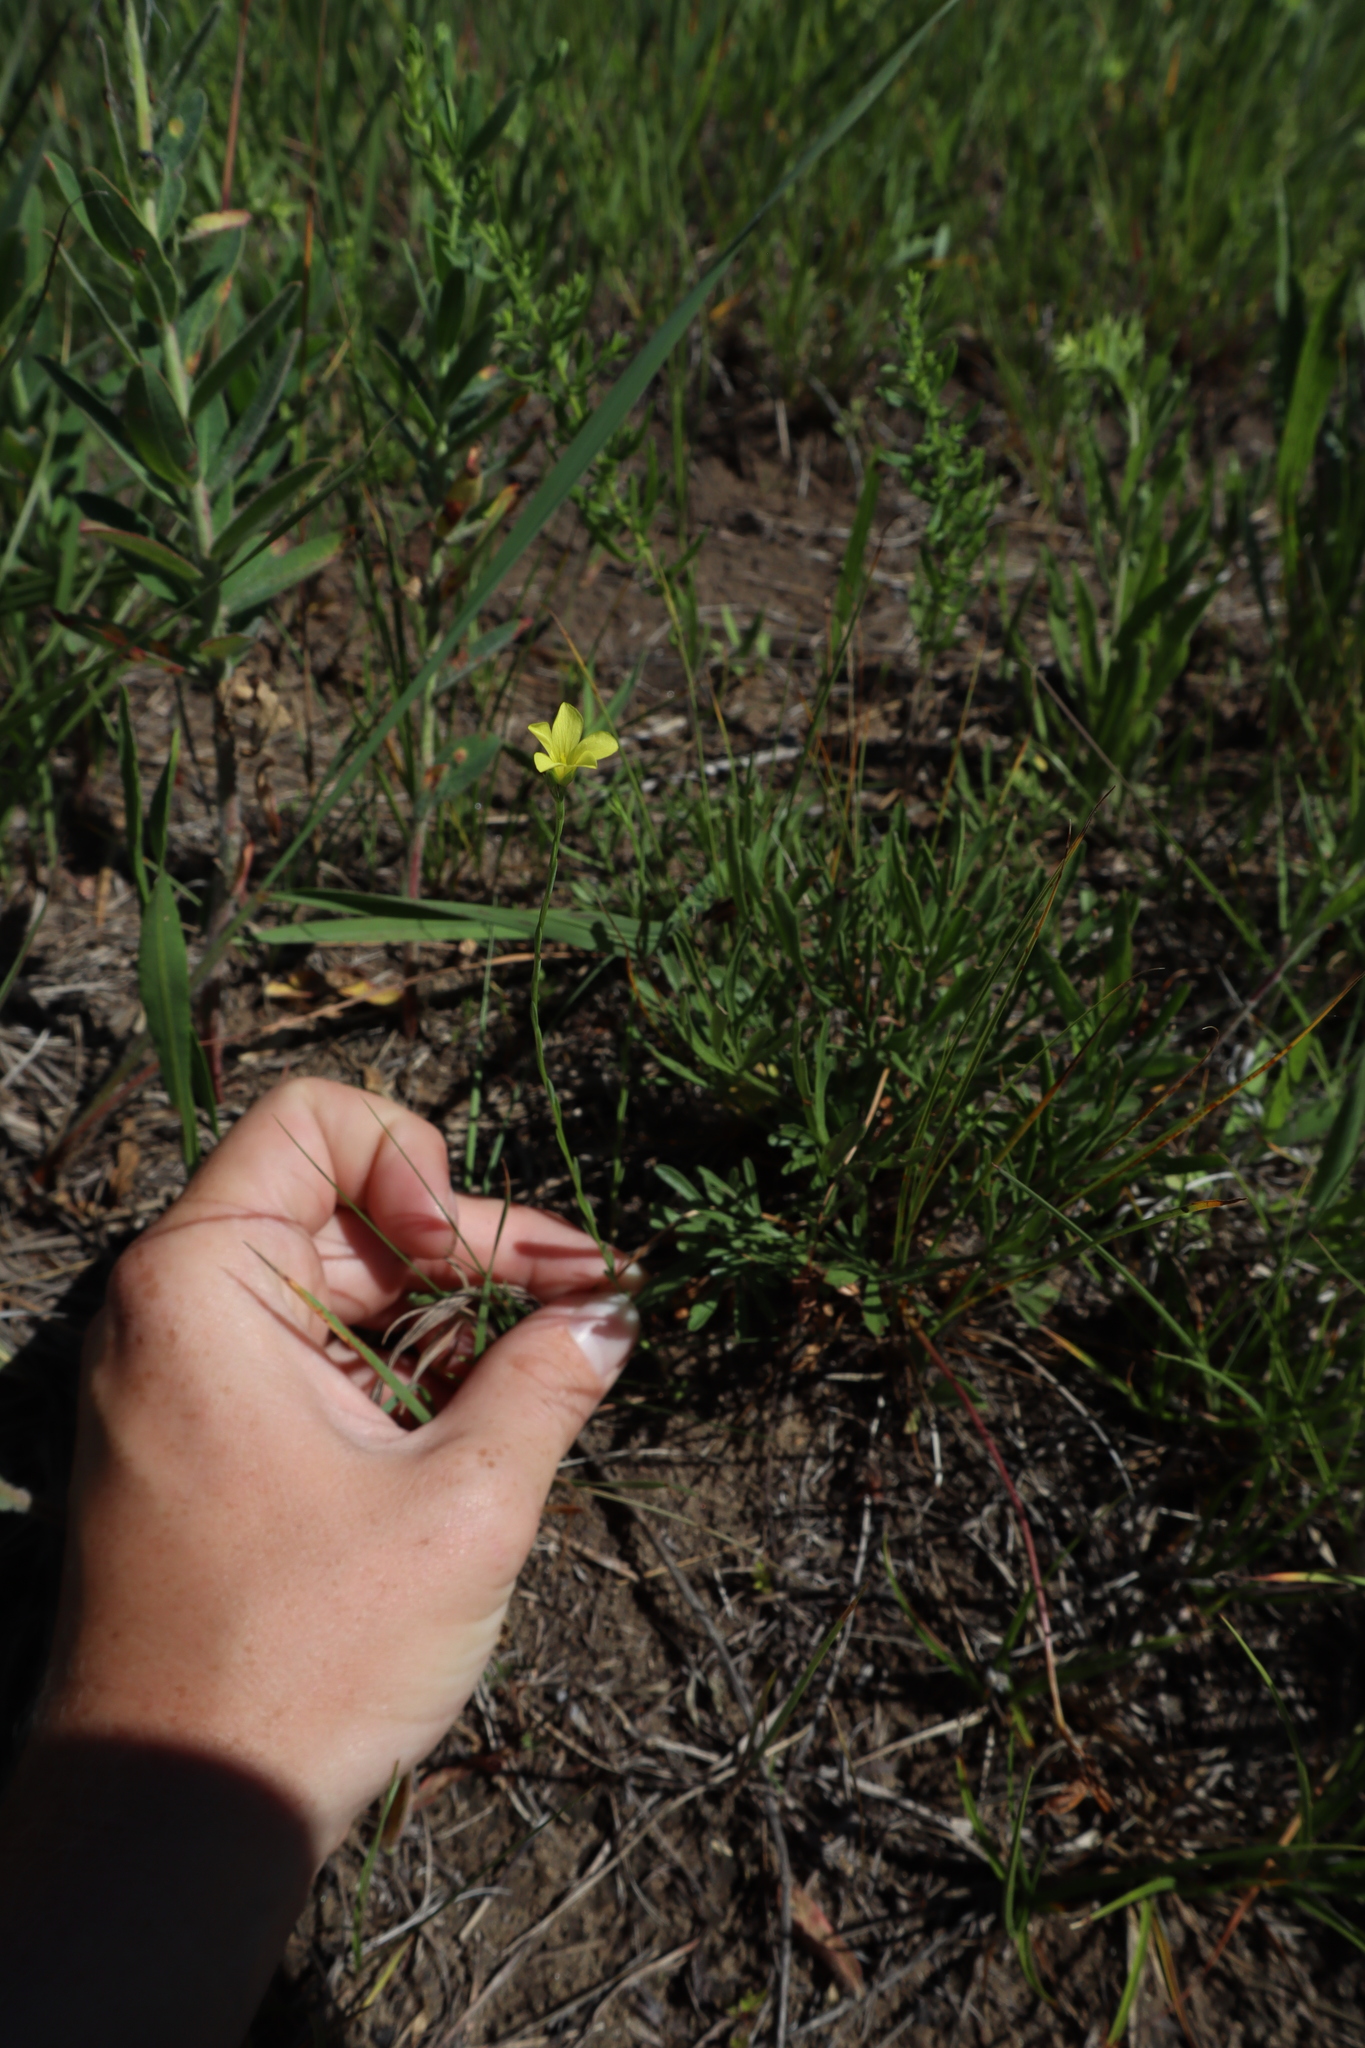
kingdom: Plantae
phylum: Tracheophyta
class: Magnoliopsida
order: Malpighiales
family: Linaceae
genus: Linum
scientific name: Linum sulcatum
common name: Grooved flax
